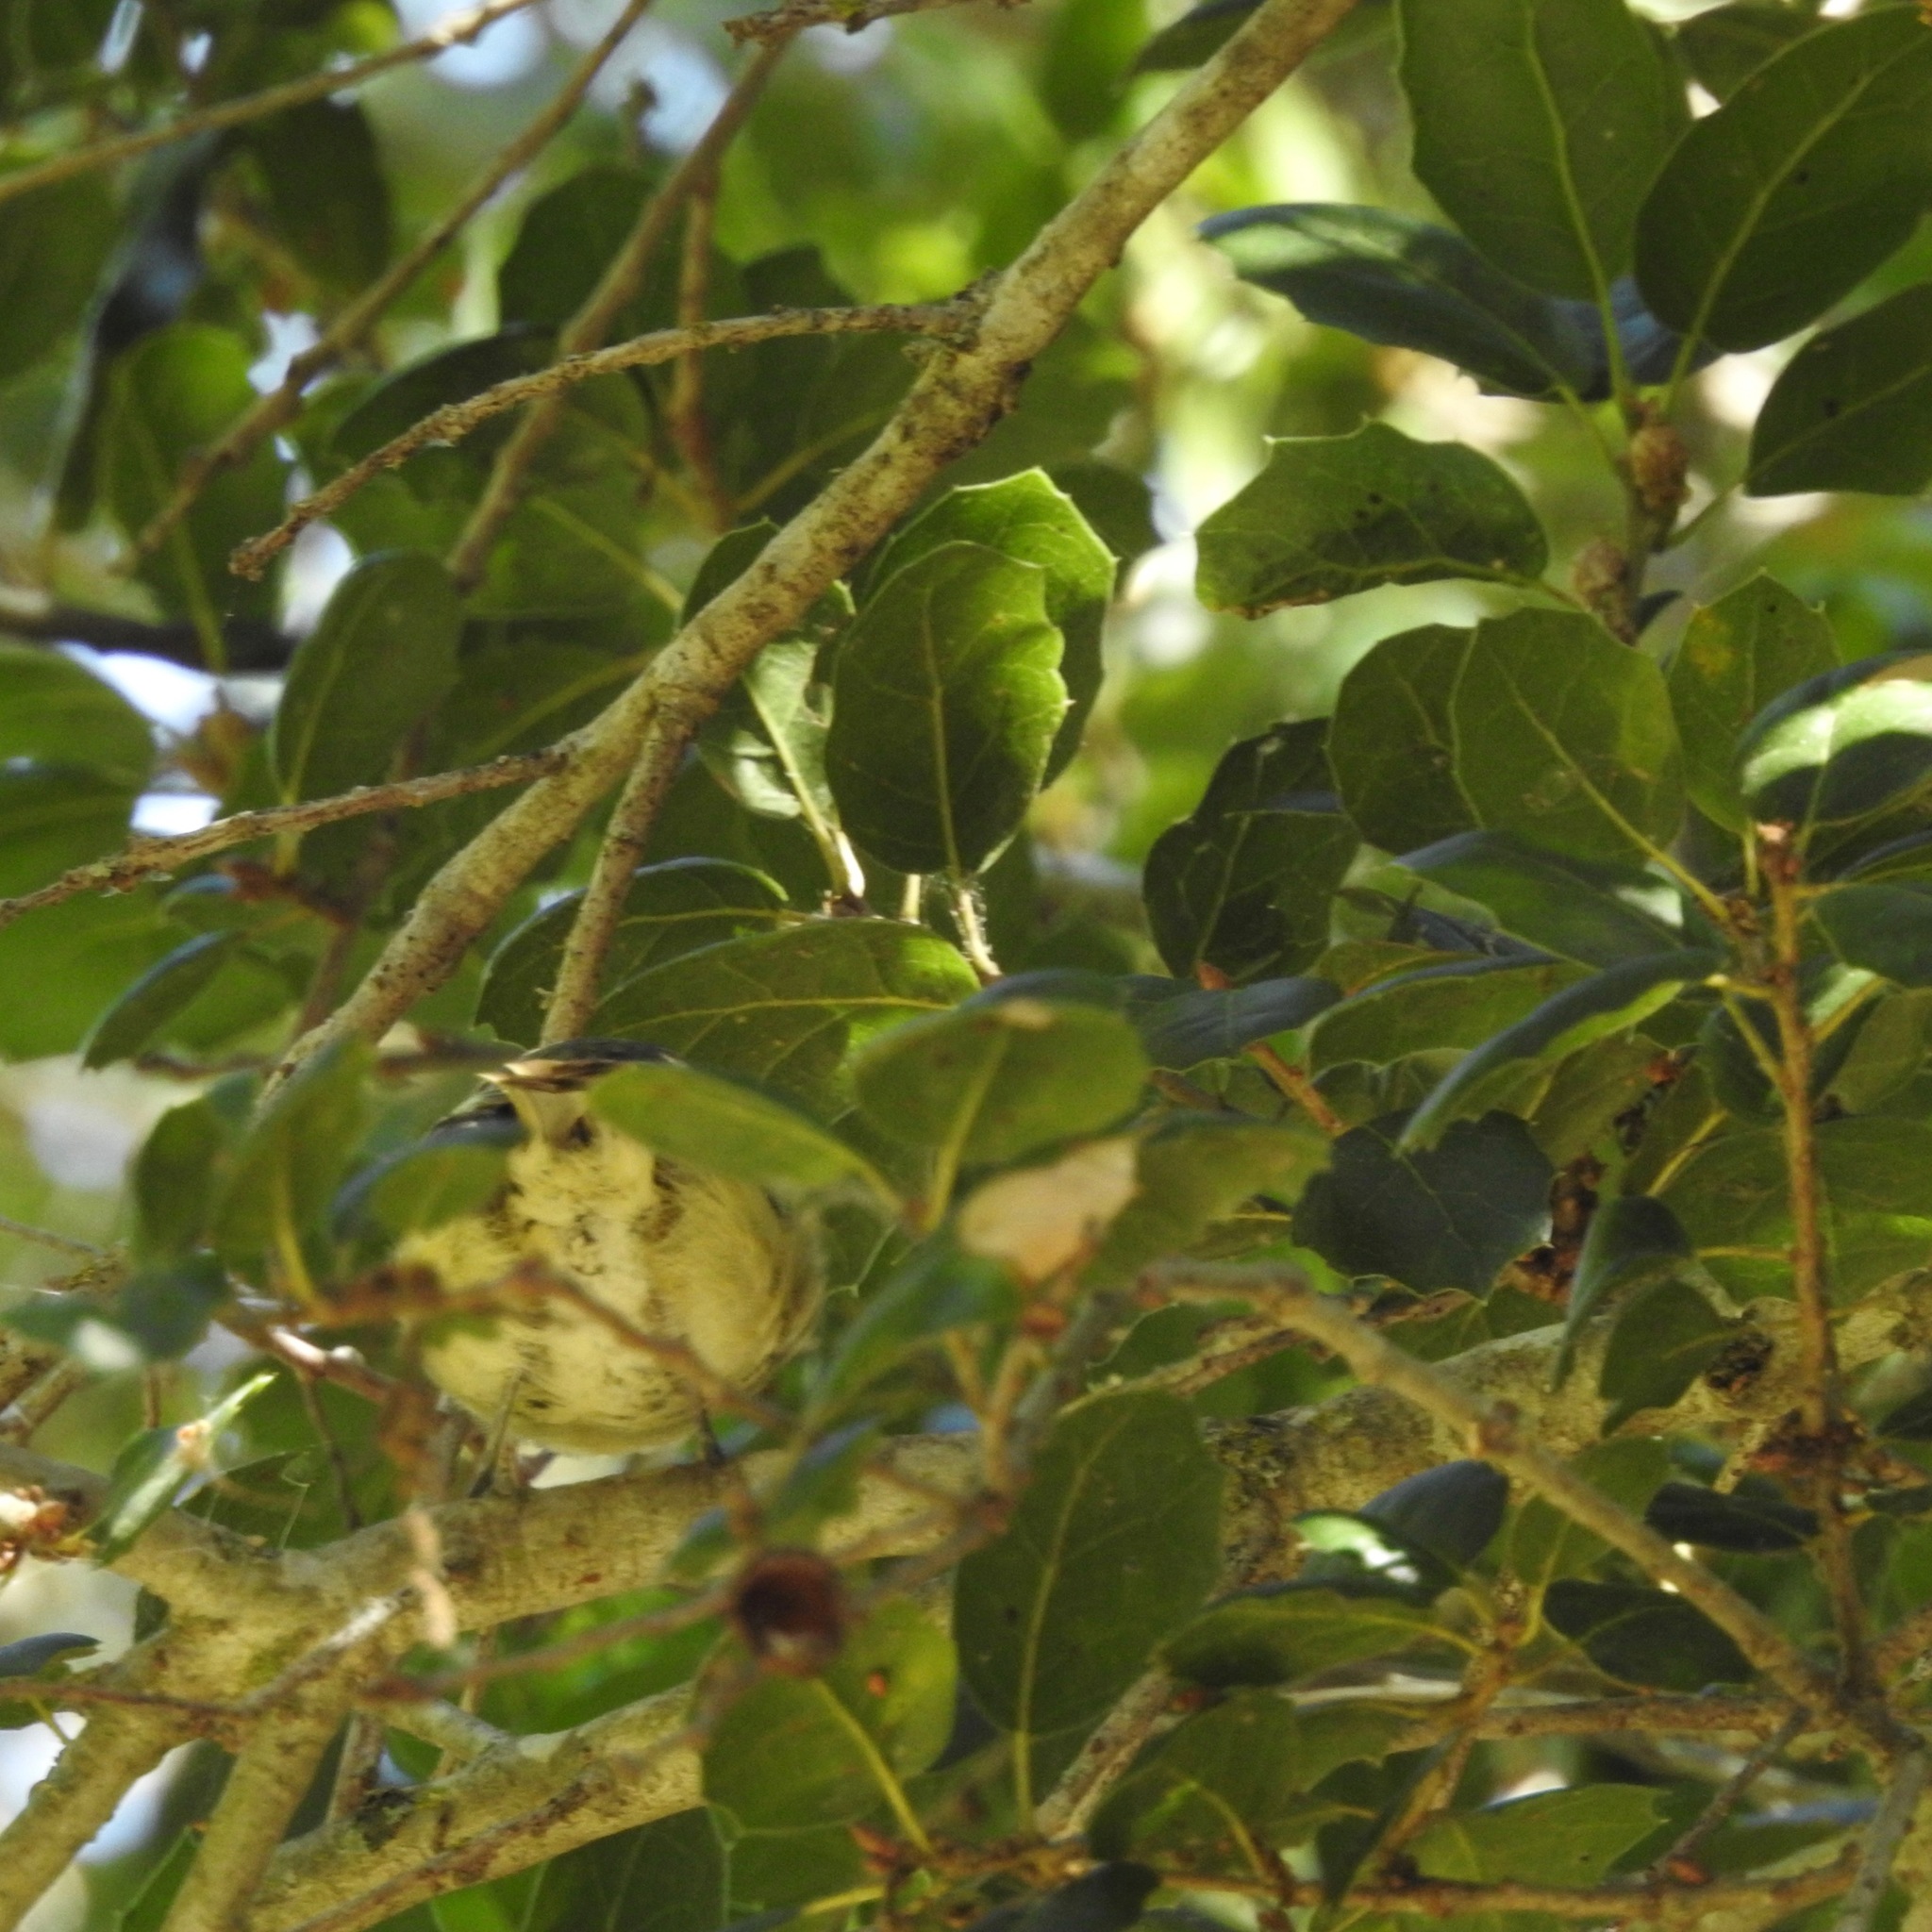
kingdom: Plantae
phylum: Tracheophyta
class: Magnoliopsida
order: Fagales
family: Fagaceae
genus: Quercus
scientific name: Quercus agrifolia
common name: California live oak
